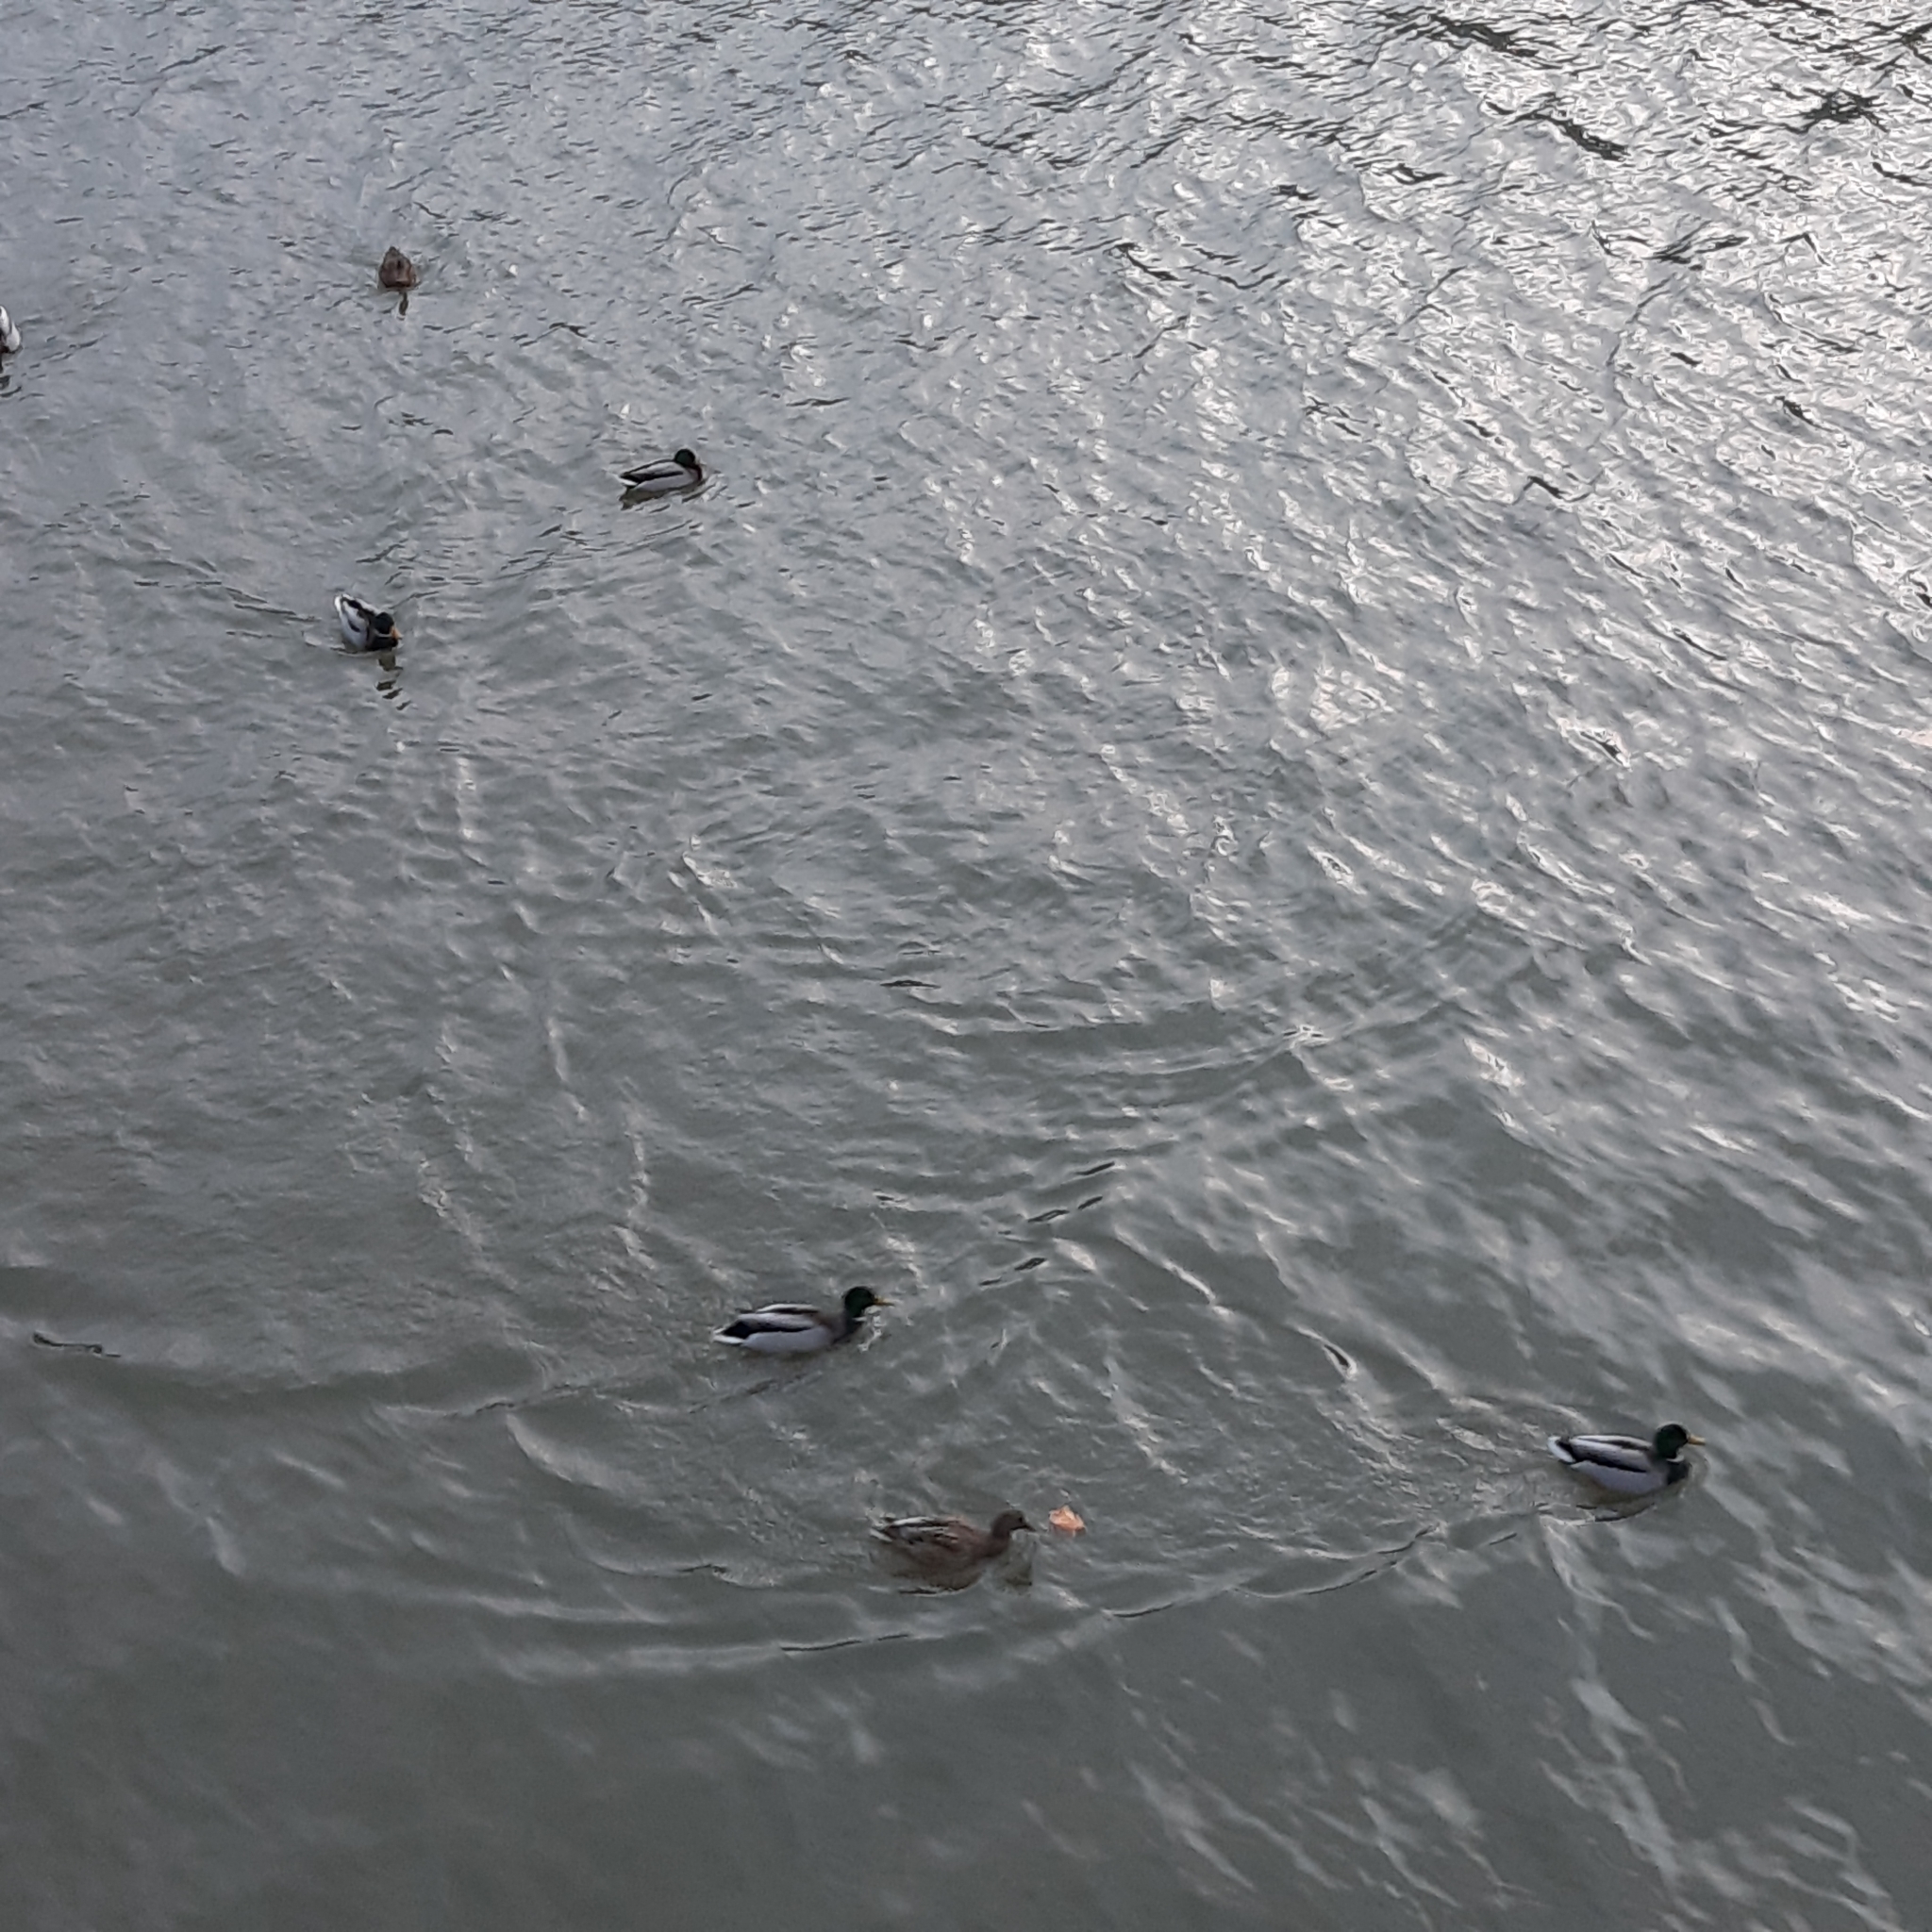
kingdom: Animalia
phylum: Chordata
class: Aves
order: Anseriformes
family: Anatidae
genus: Anas
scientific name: Anas platyrhynchos
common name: Mallard
